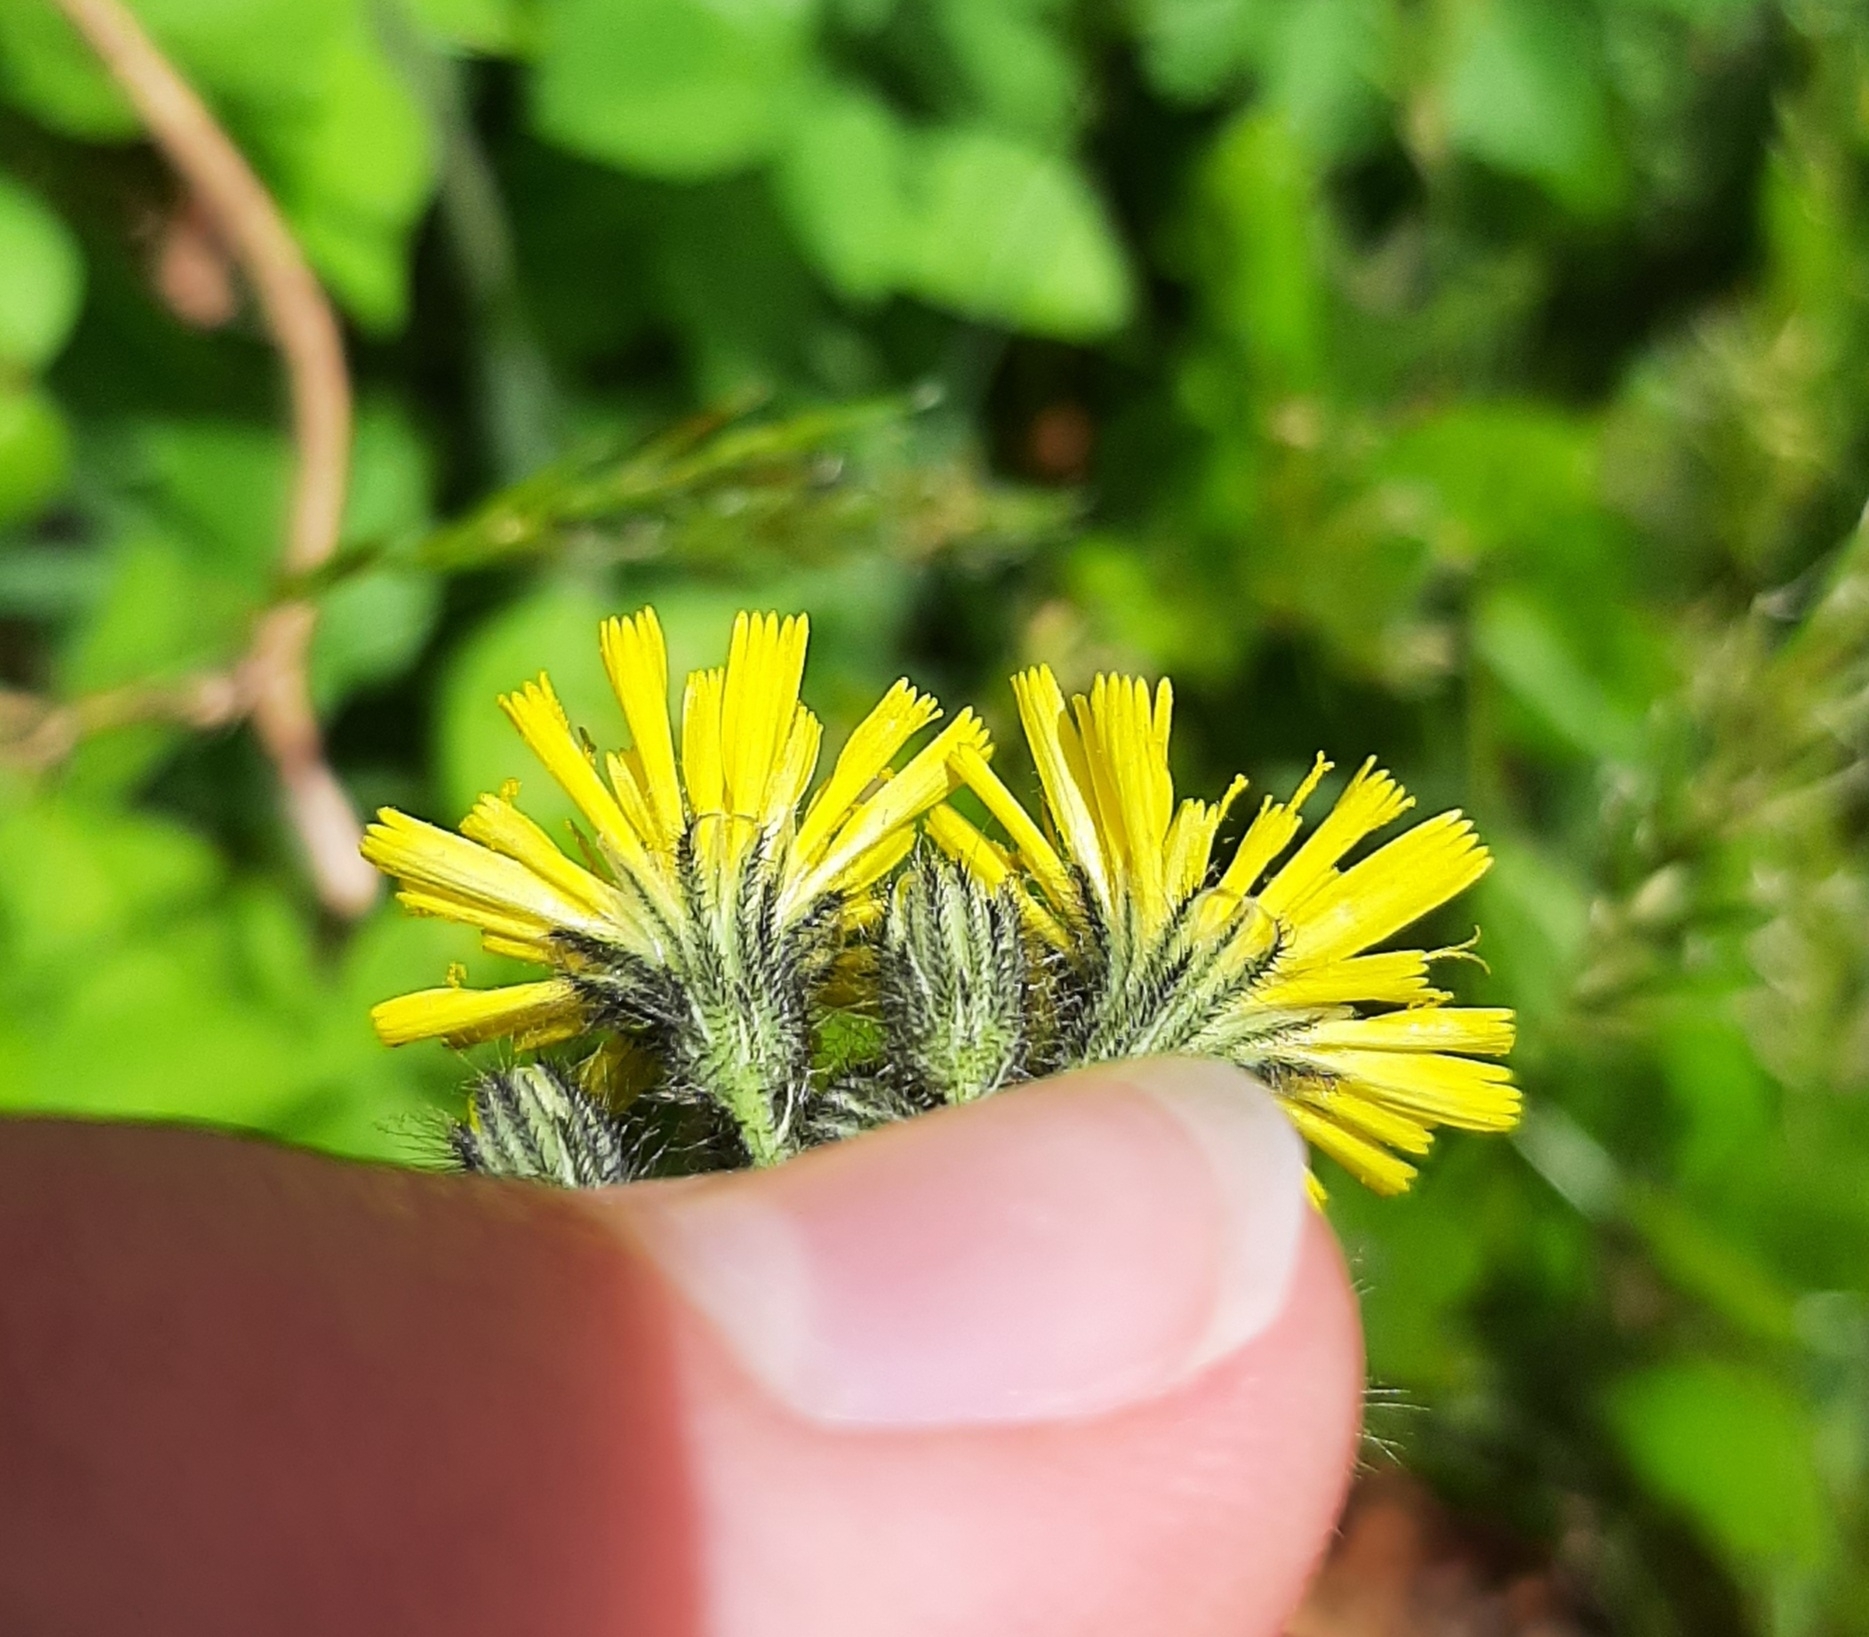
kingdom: Plantae
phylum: Tracheophyta
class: Magnoliopsida
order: Asterales
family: Asteraceae
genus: Pilosella
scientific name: Pilosella caespitosa
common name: Yellow fox-and-cubs
